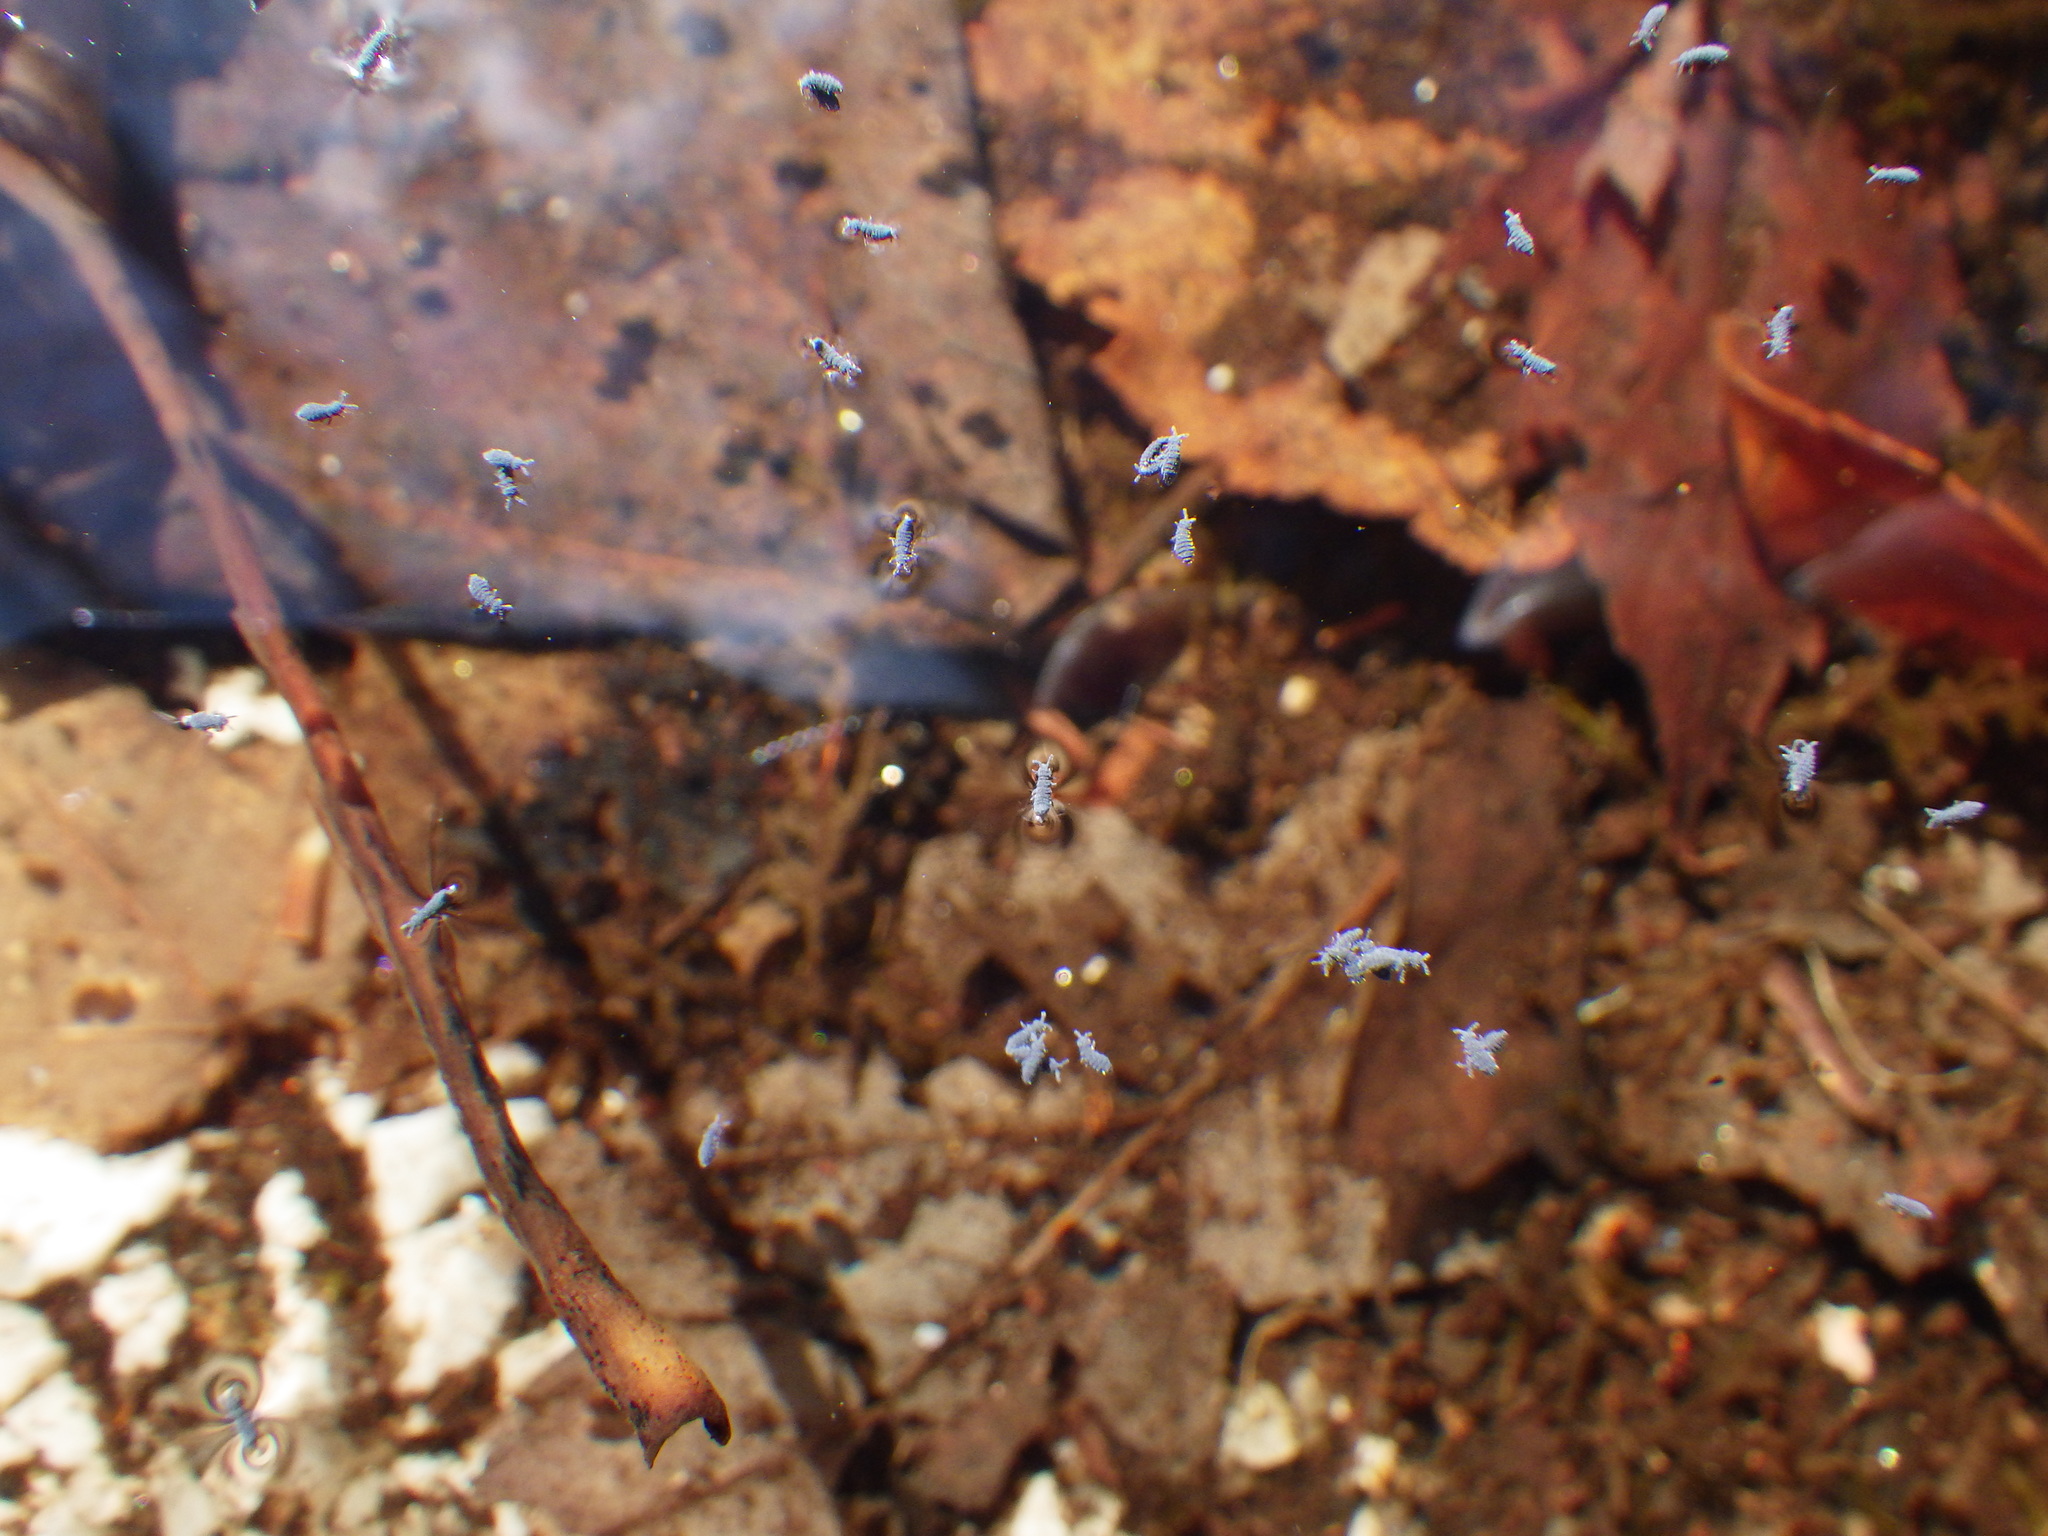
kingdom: Animalia
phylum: Arthropoda
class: Collembola
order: Poduromorpha
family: Poduridae
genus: Podura
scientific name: Podura aquatica
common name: Water springtail
